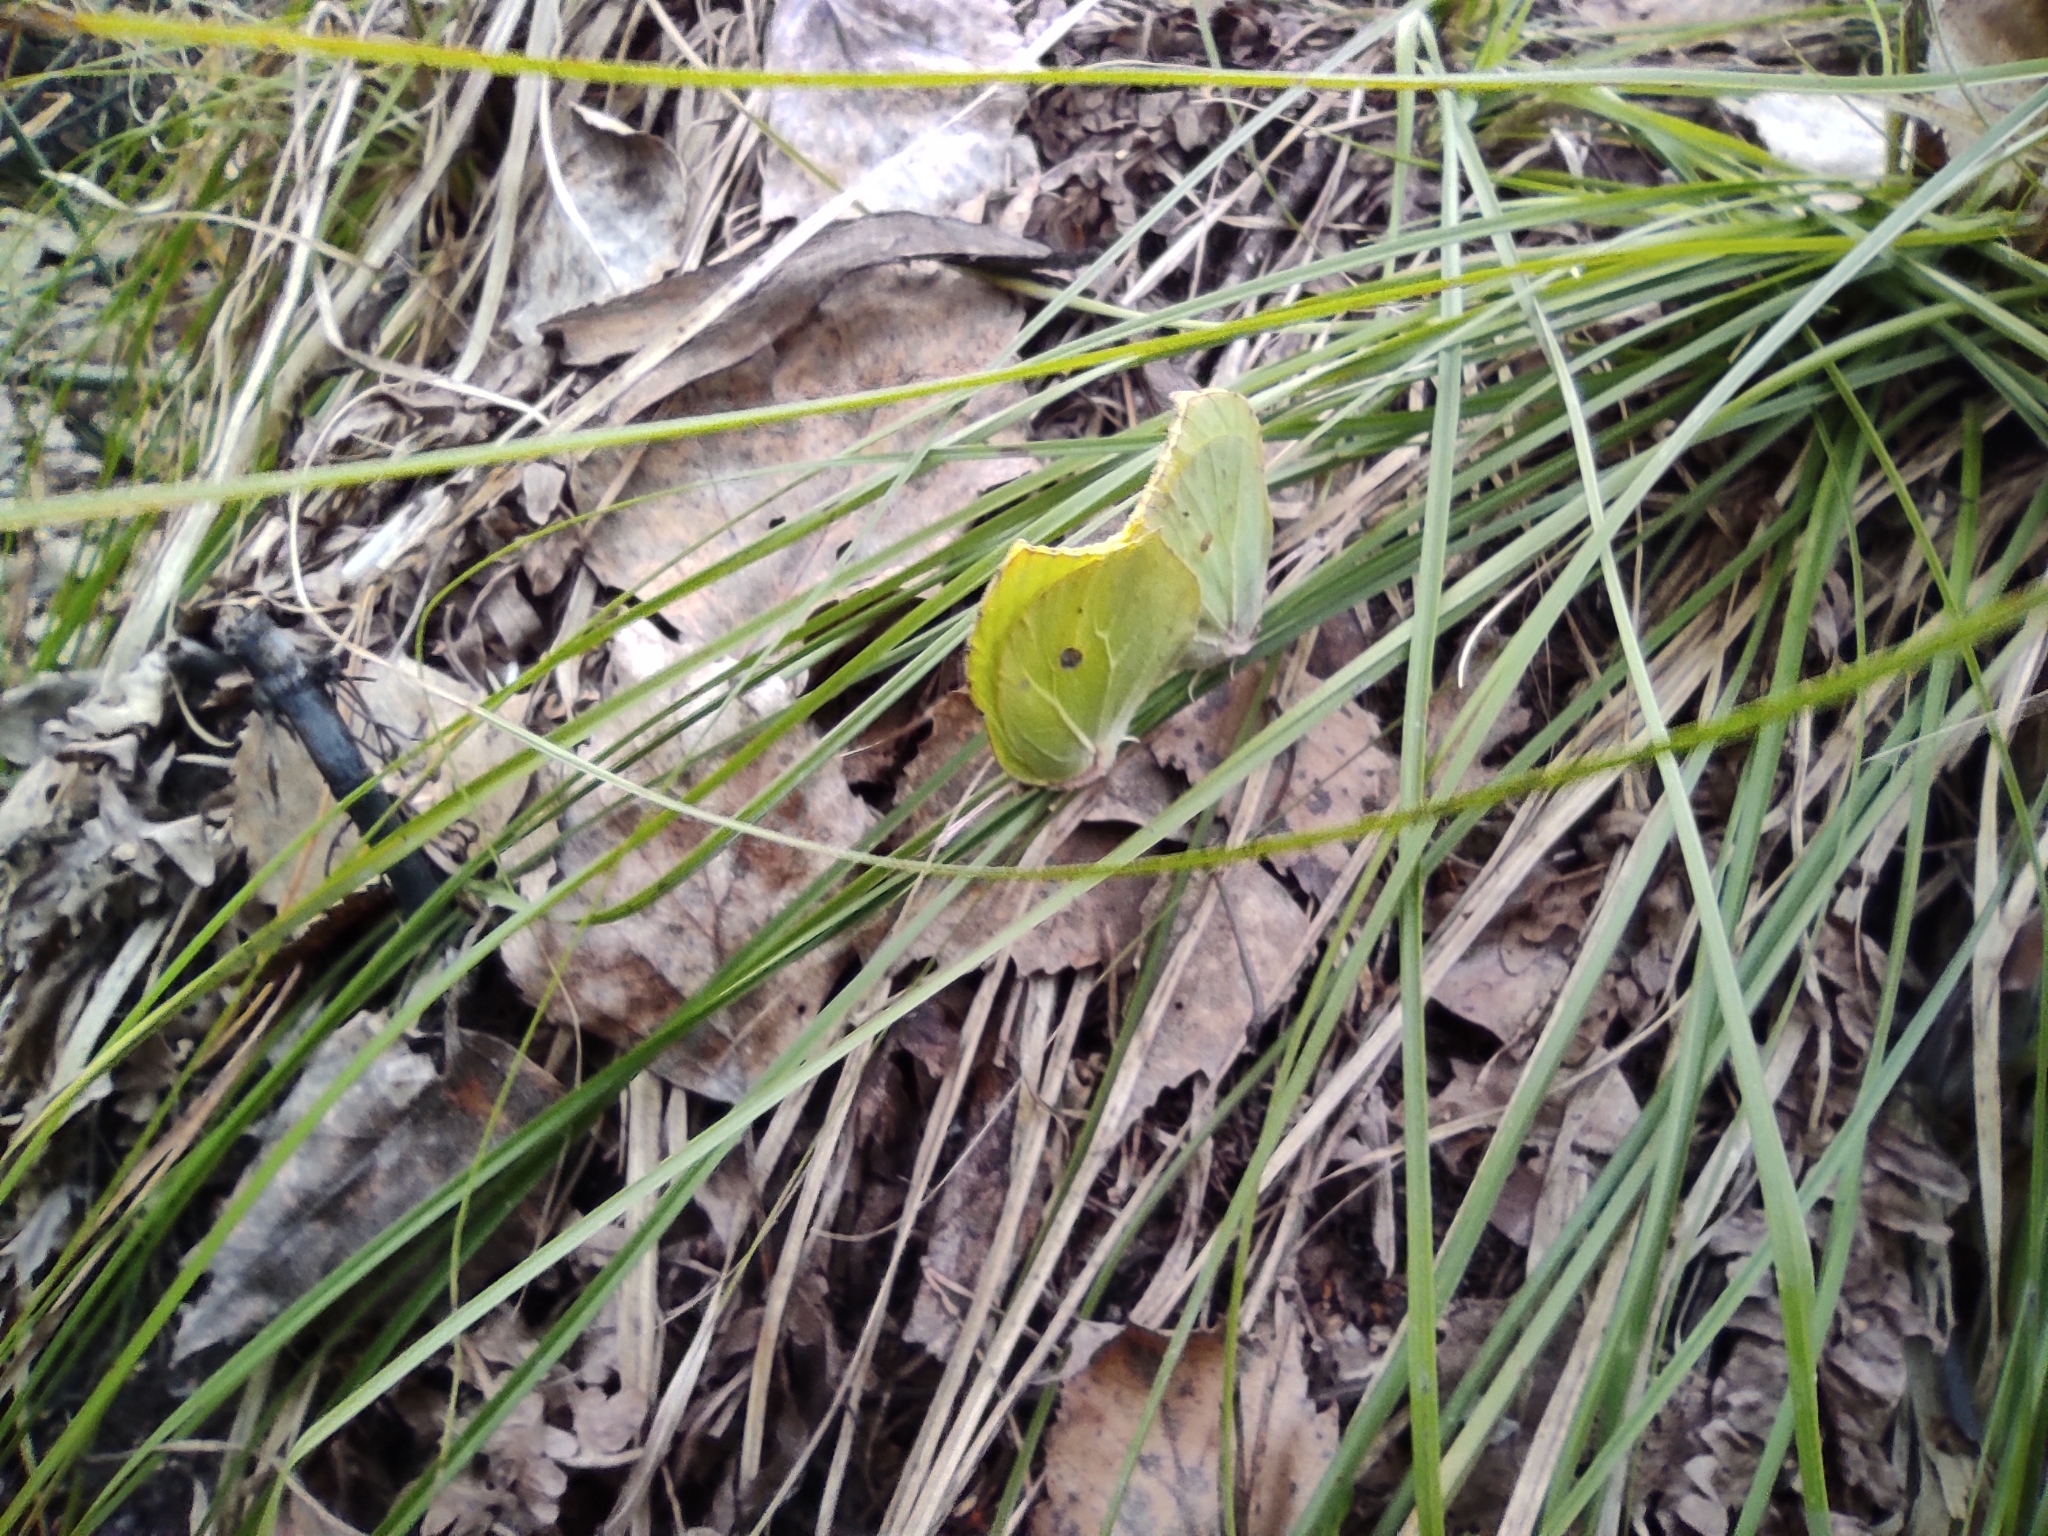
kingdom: Animalia
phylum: Arthropoda
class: Insecta
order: Lepidoptera
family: Pieridae
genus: Gonepteryx
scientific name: Gonepteryx rhamni
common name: Brimstone
